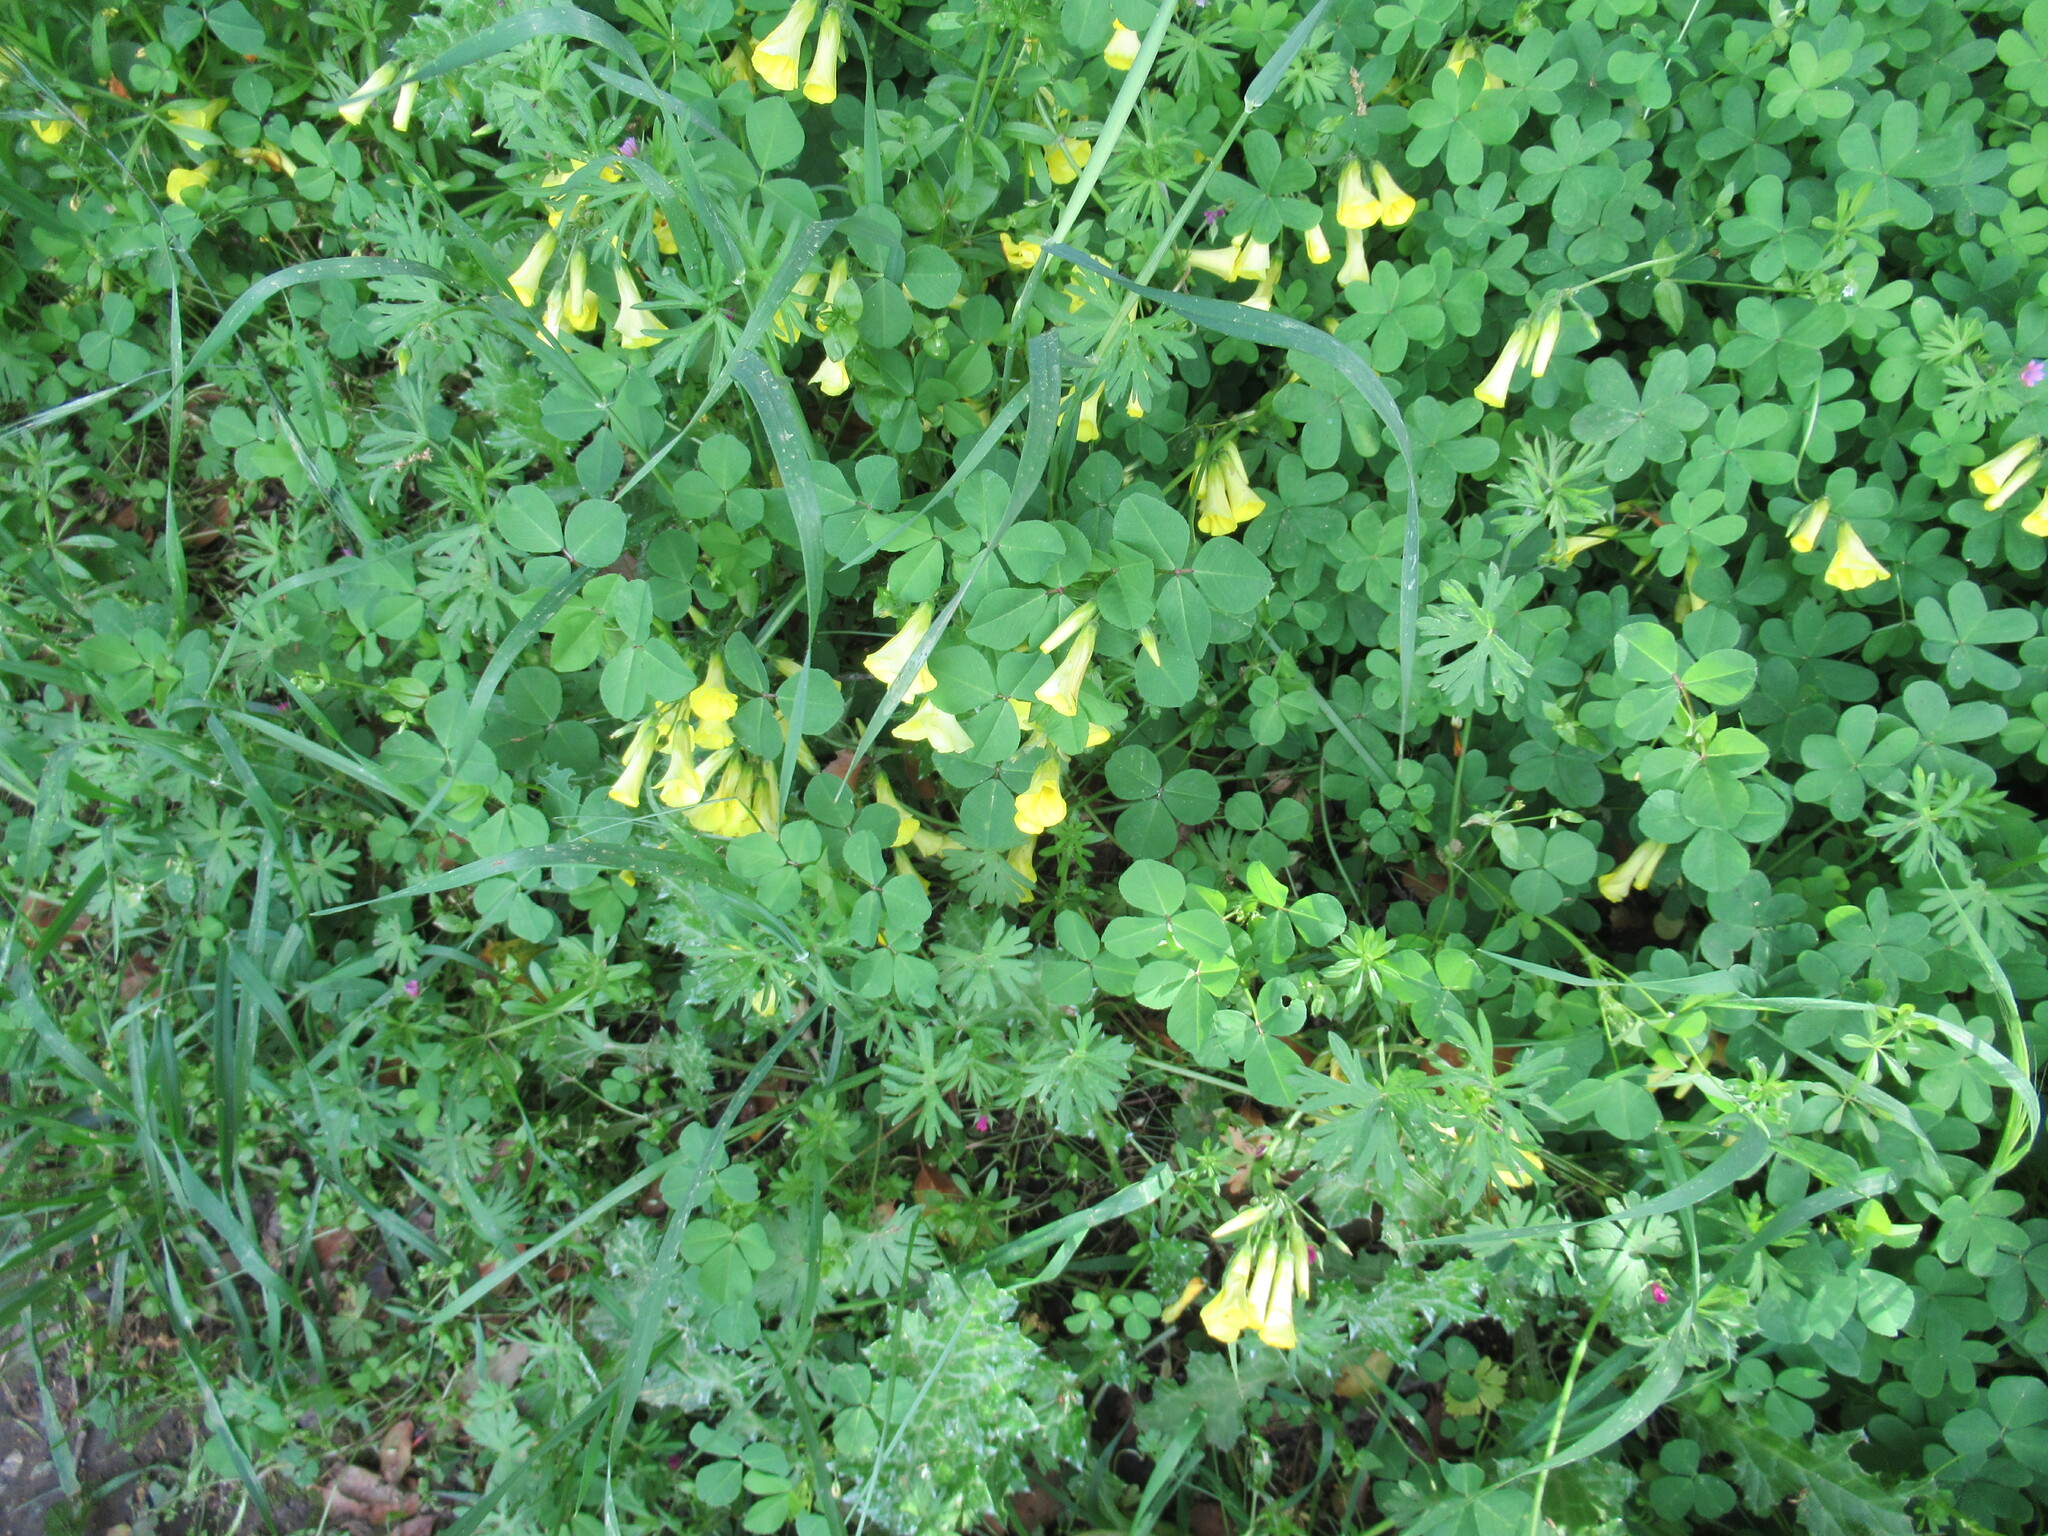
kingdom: Plantae
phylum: Tracheophyta
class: Magnoliopsida
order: Oxalidales
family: Oxalidaceae
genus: Oxalis
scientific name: Oxalis pes-caprae
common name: Bermuda-buttercup
